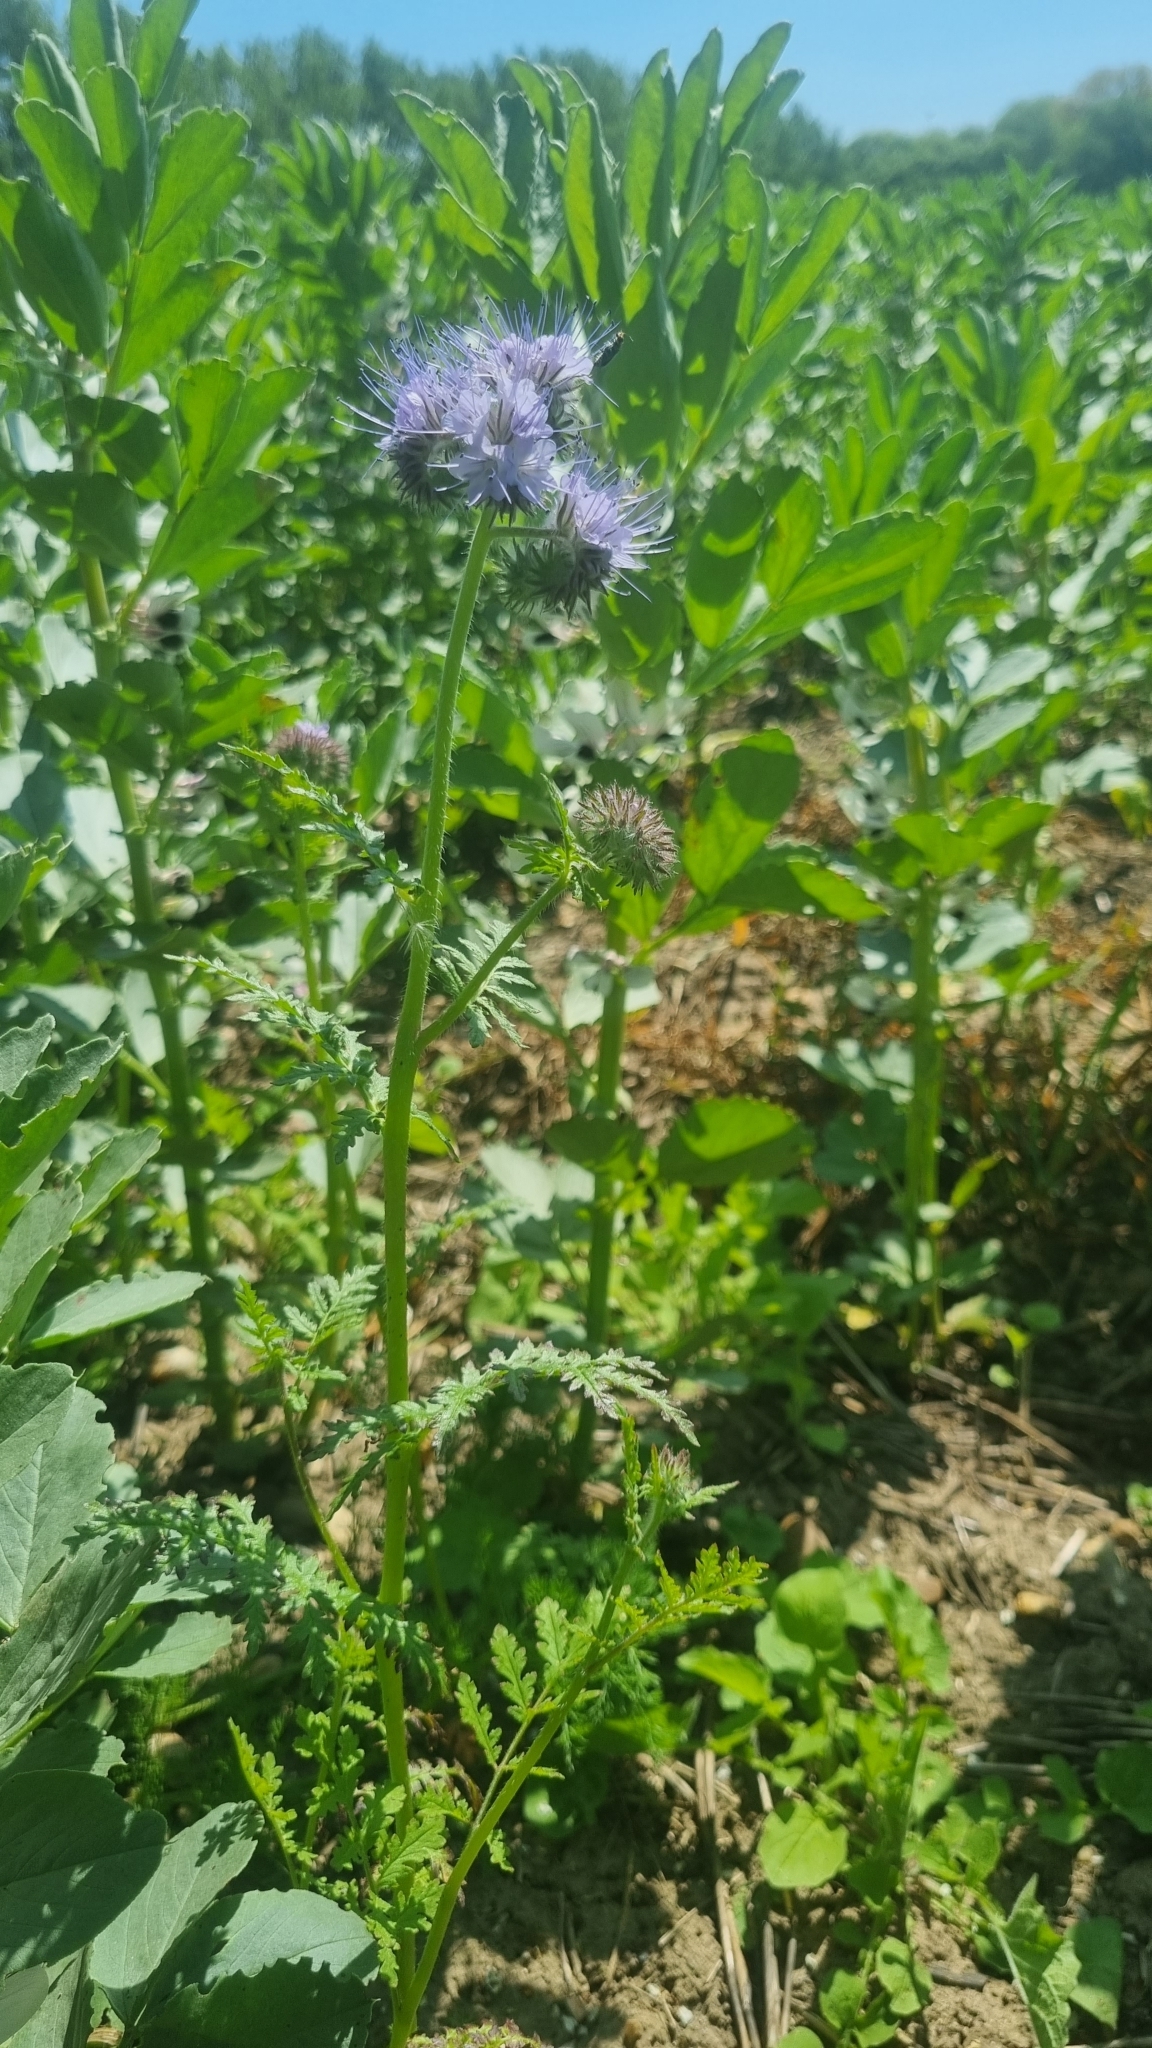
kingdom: Plantae
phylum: Tracheophyta
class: Magnoliopsida
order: Boraginales
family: Hydrophyllaceae
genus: Phacelia
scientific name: Phacelia tanacetifolia
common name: Phacelia
